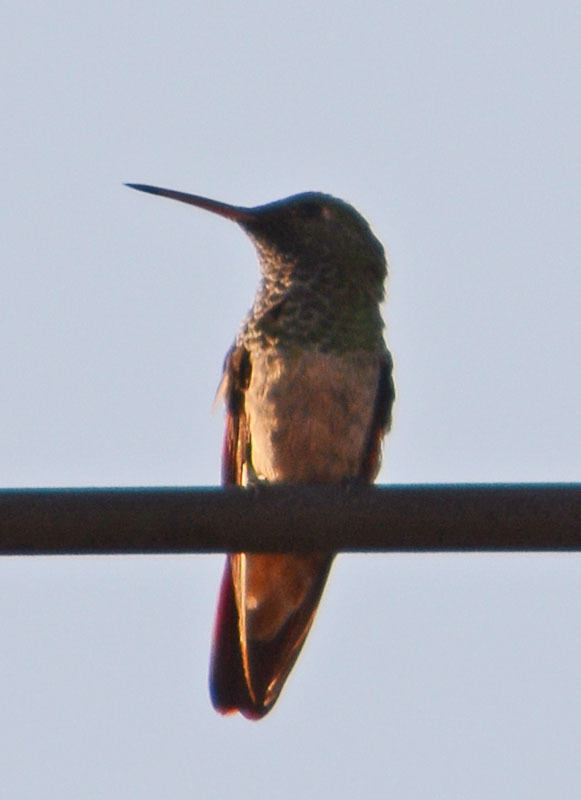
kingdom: Animalia
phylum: Chordata
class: Aves
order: Apodiformes
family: Trochilidae
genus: Saucerottia
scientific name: Saucerottia beryllina
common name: Berylline hummingbird
